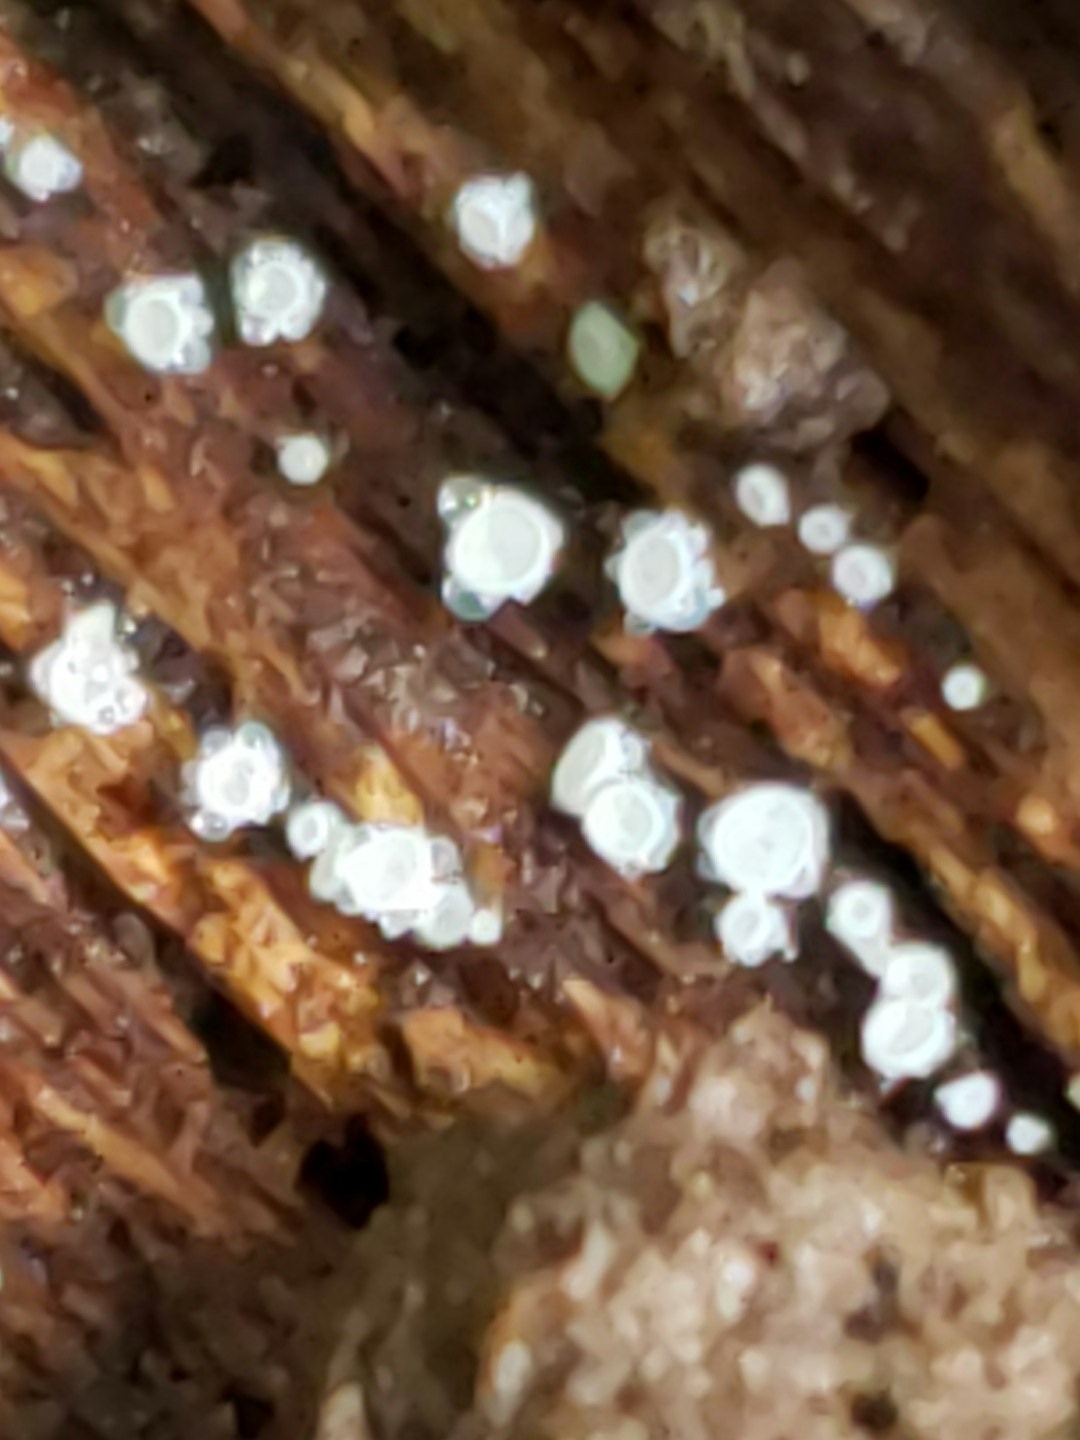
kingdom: Fungi
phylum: Ascomycota
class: Leotiomycetes
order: Helotiales
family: Lachnaceae
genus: Lachnum
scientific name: Lachnum virgineum
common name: Snowy disco
